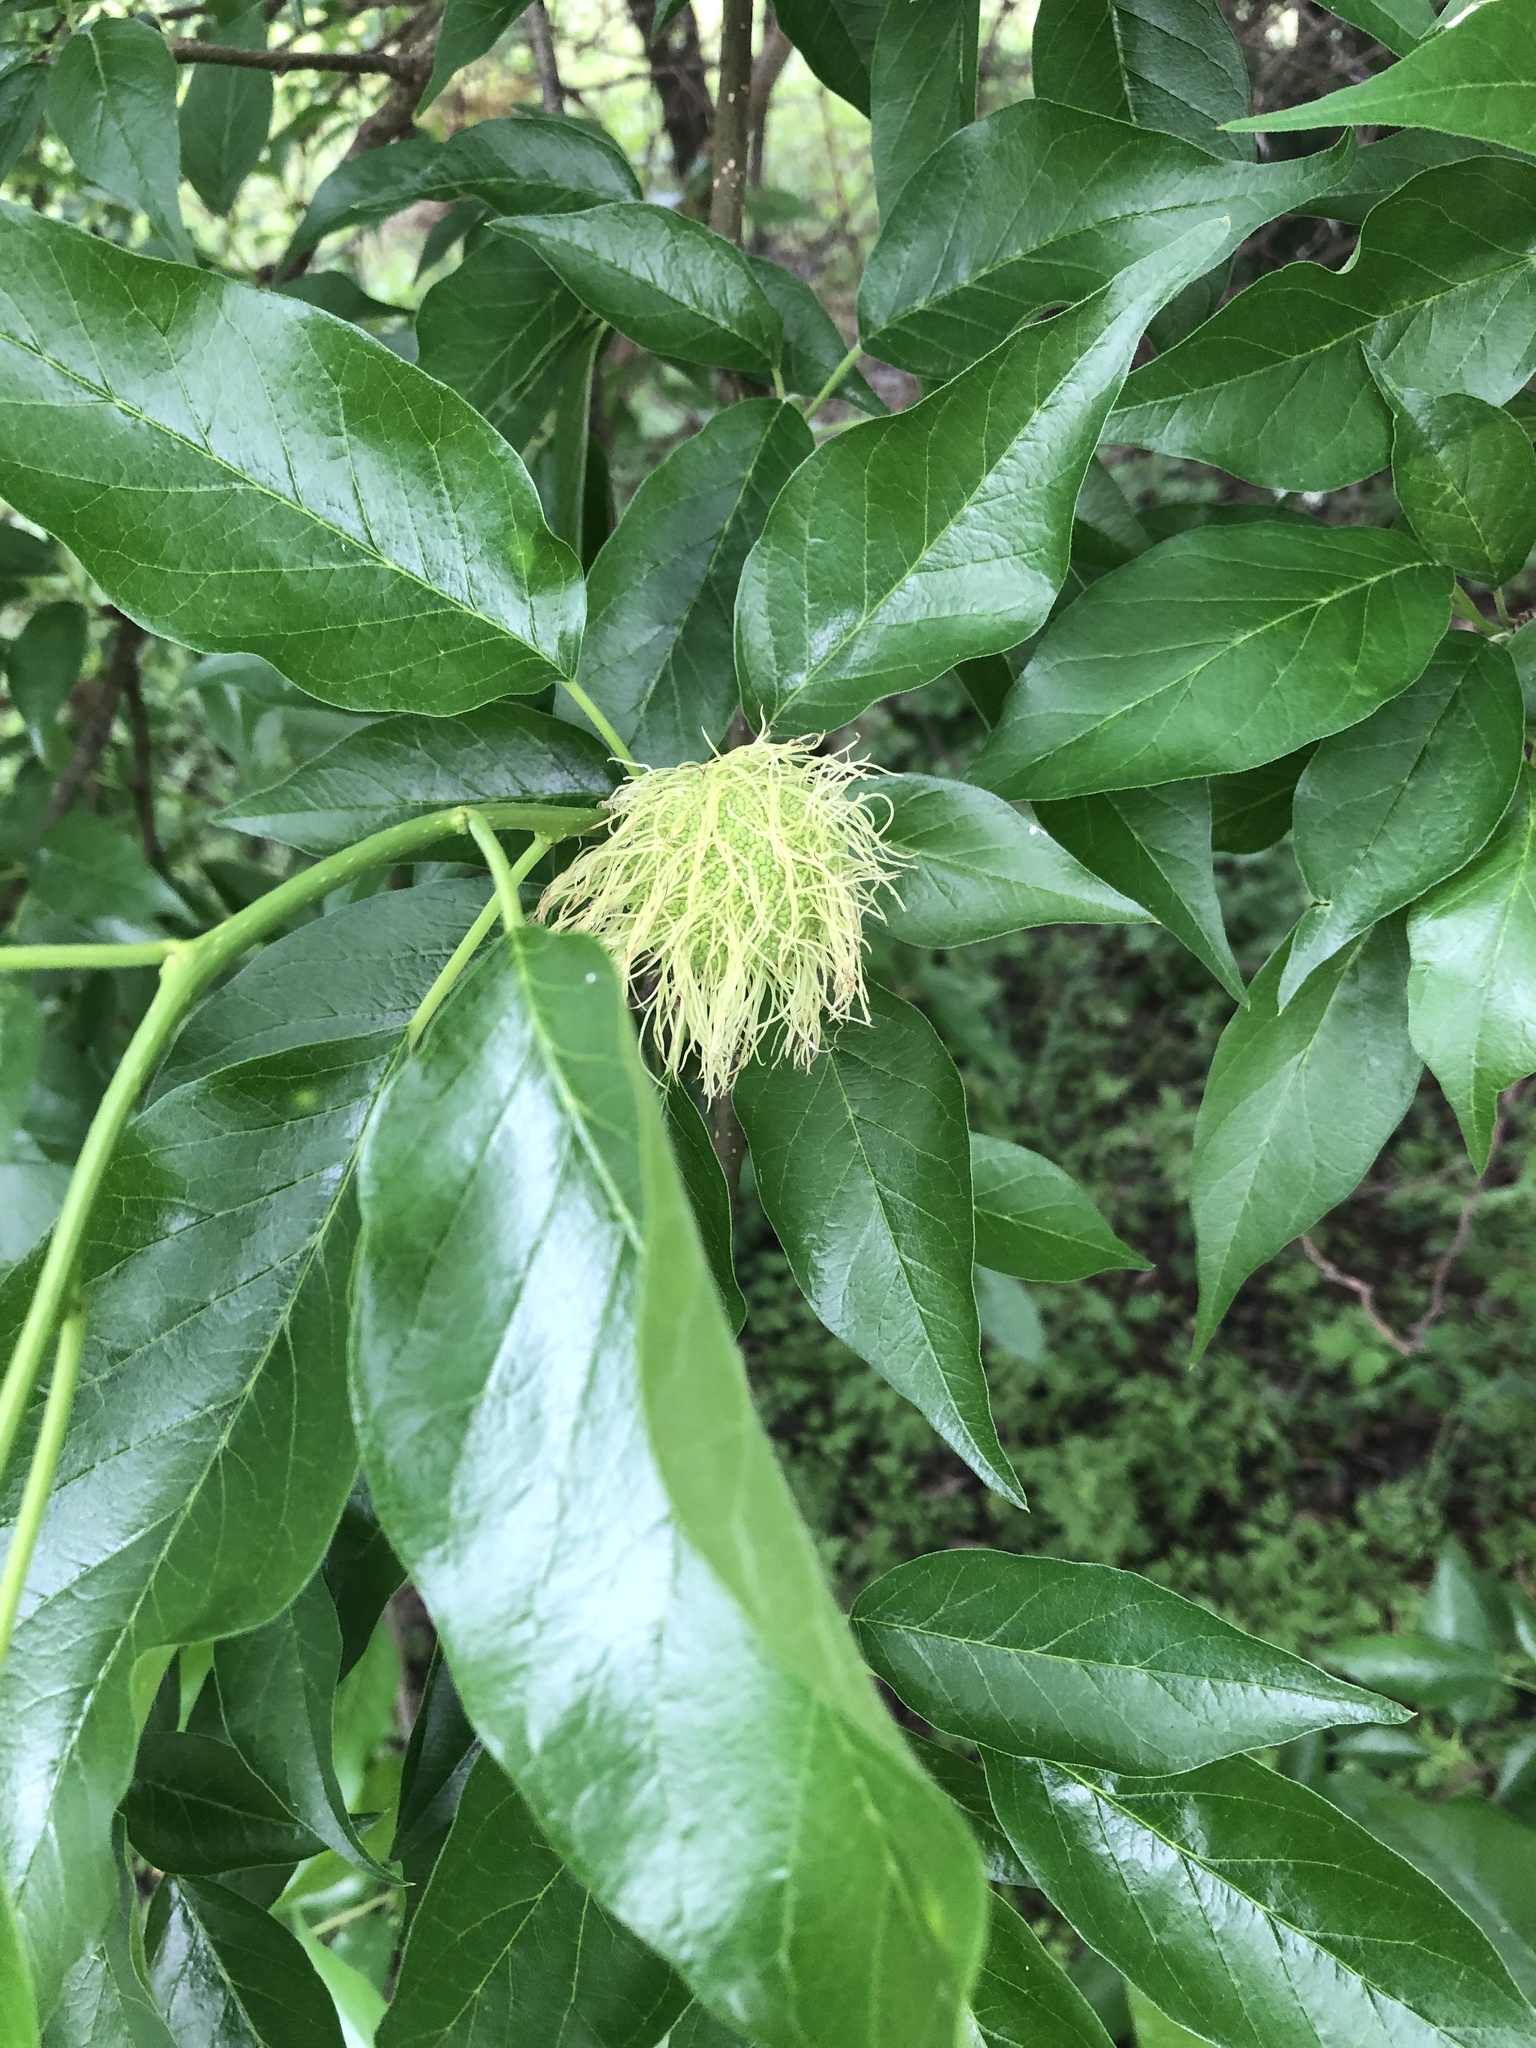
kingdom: Plantae
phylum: Tracheophyta
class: Magnoliopsida
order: Rosales
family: Moraceae
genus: Maclura
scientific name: Maclura pomifera
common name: Osage-orange
